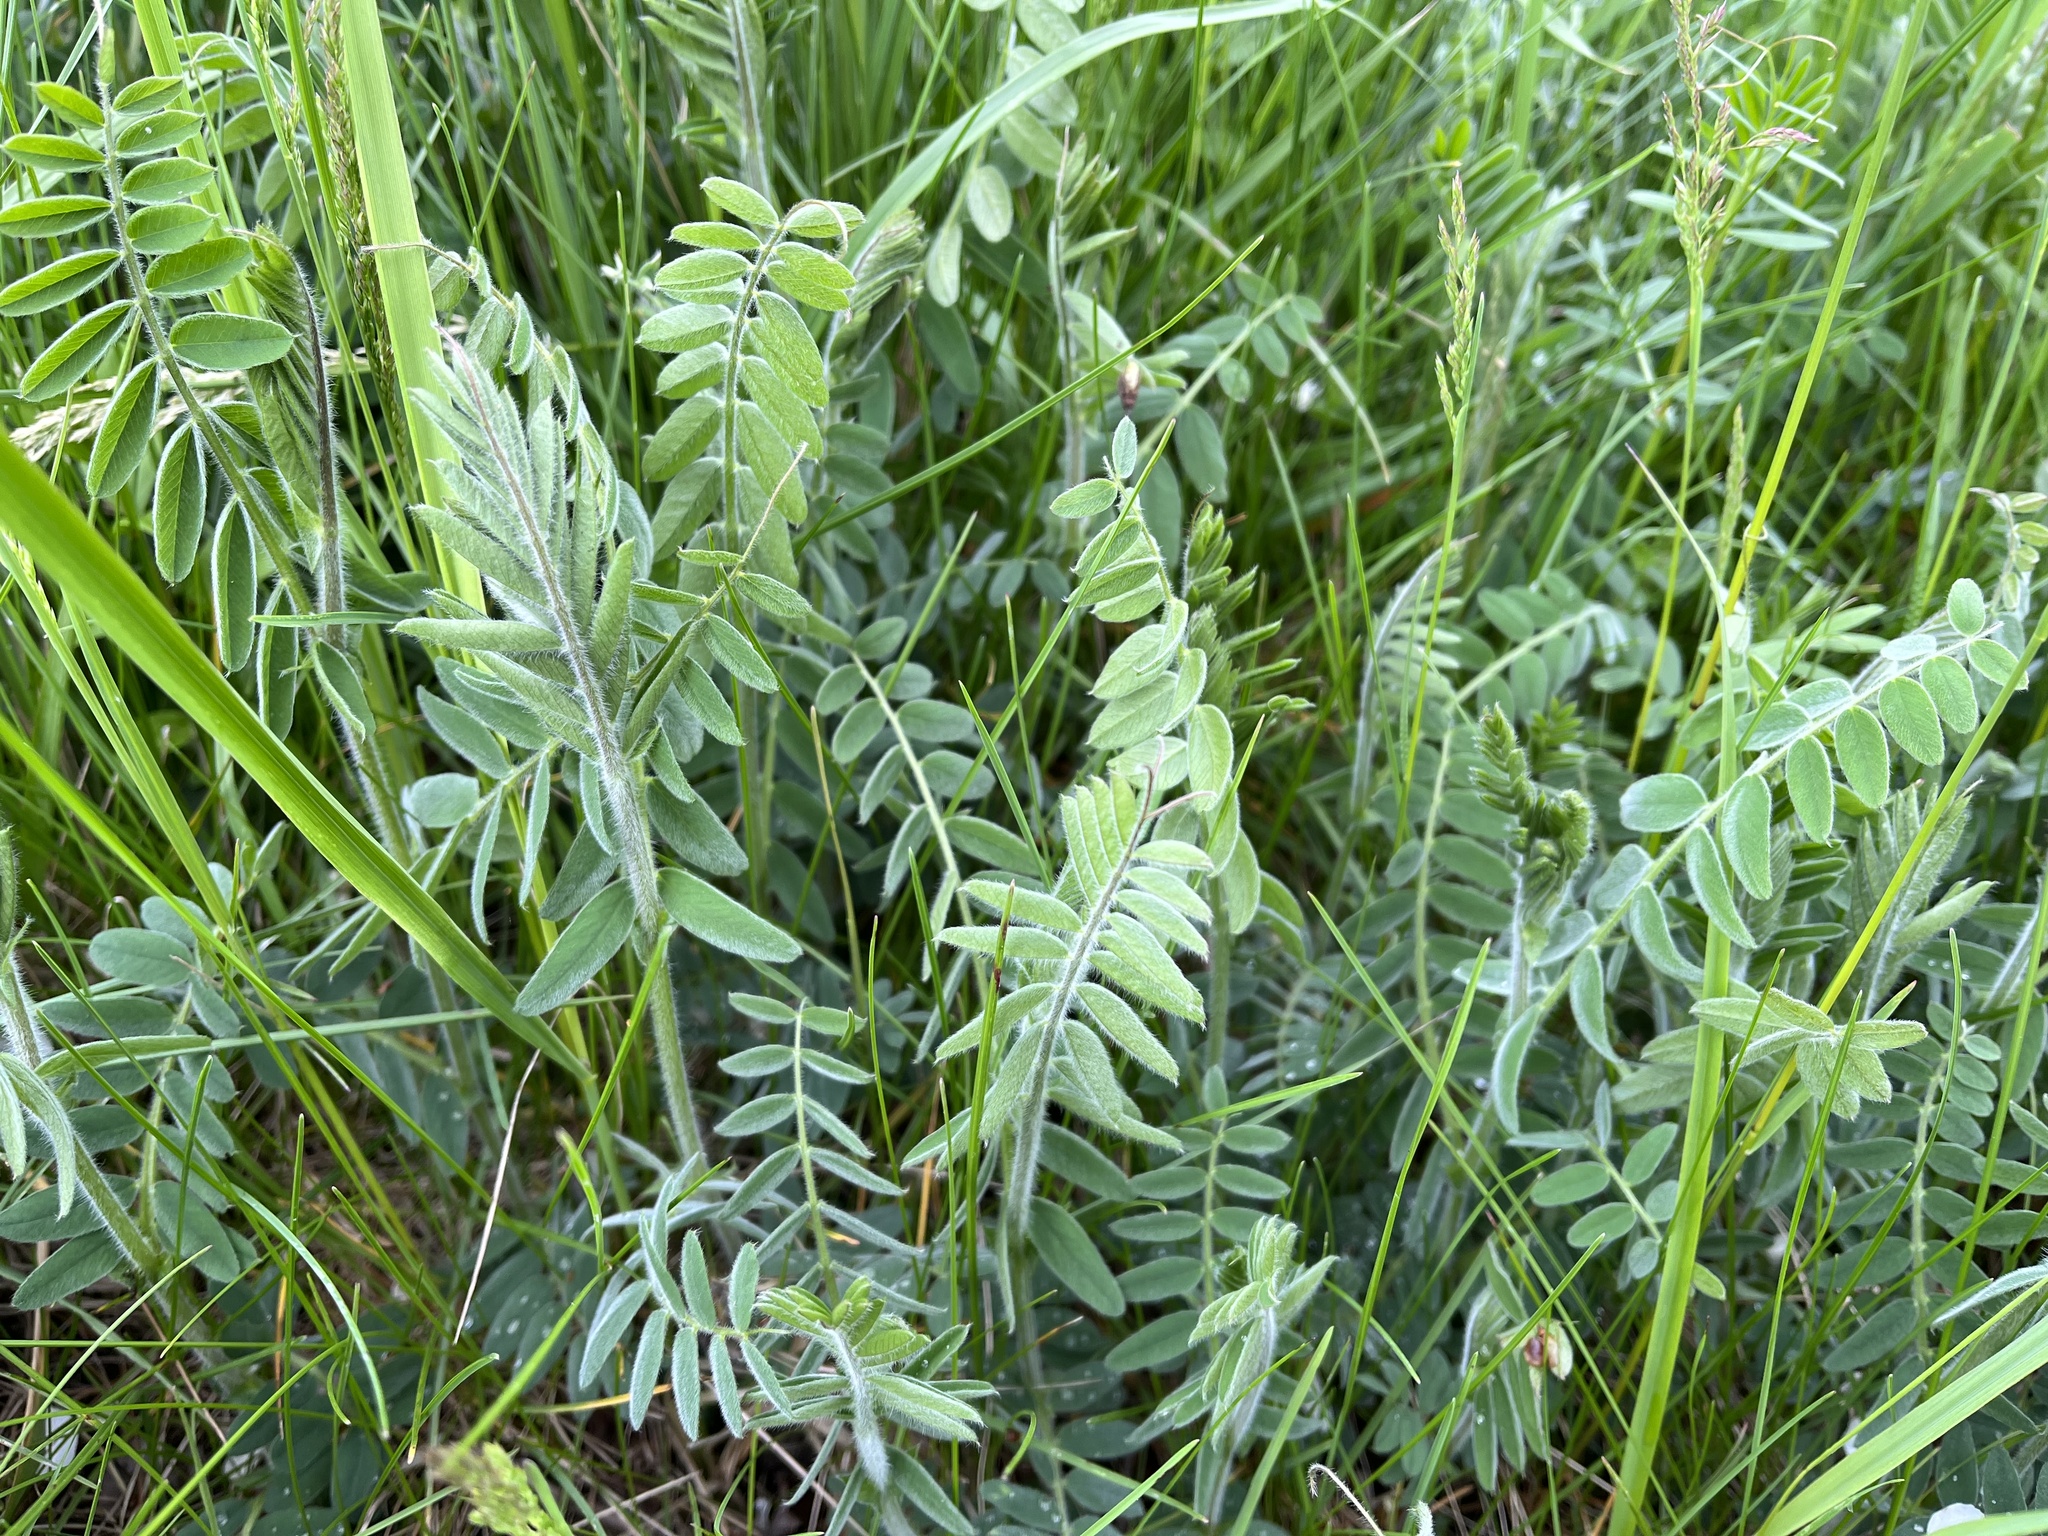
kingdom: Plantae
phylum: Tracheophyta
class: Magnoliopsida
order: Fabales
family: Fabaceae
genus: Vicia
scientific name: Vicia villosa
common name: Fodder vetch
